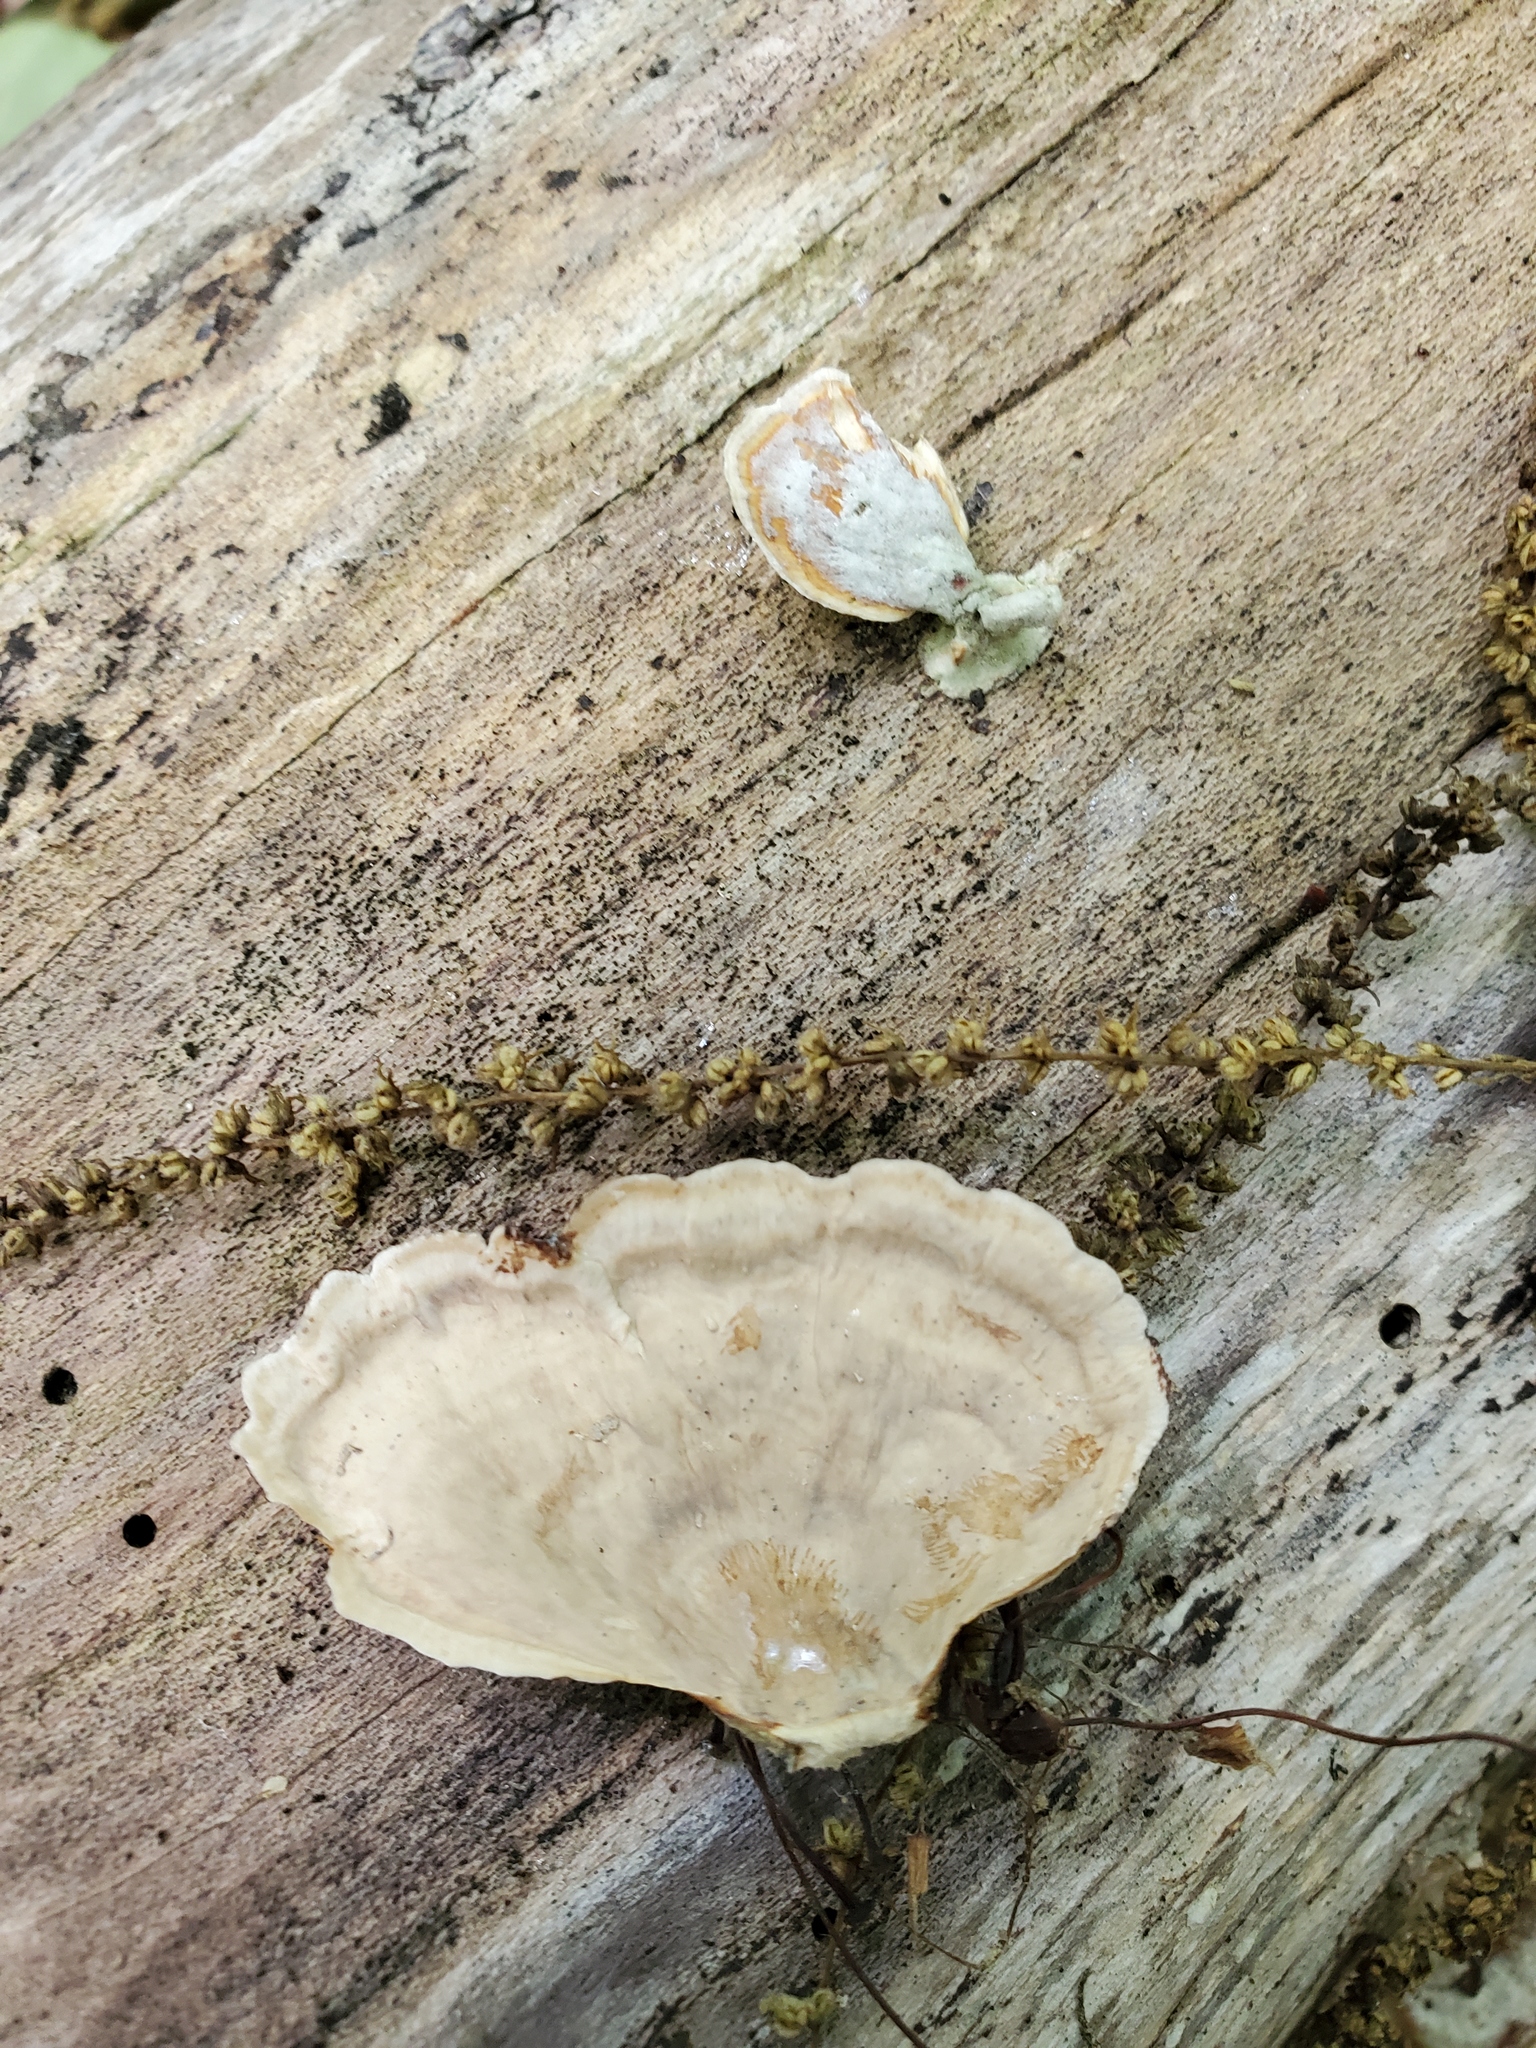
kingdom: Fungi
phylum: Basidiomycota
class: Agaricomycetes
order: Russulales
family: Stereaceae
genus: Stereum
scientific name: Stereum lobatum
